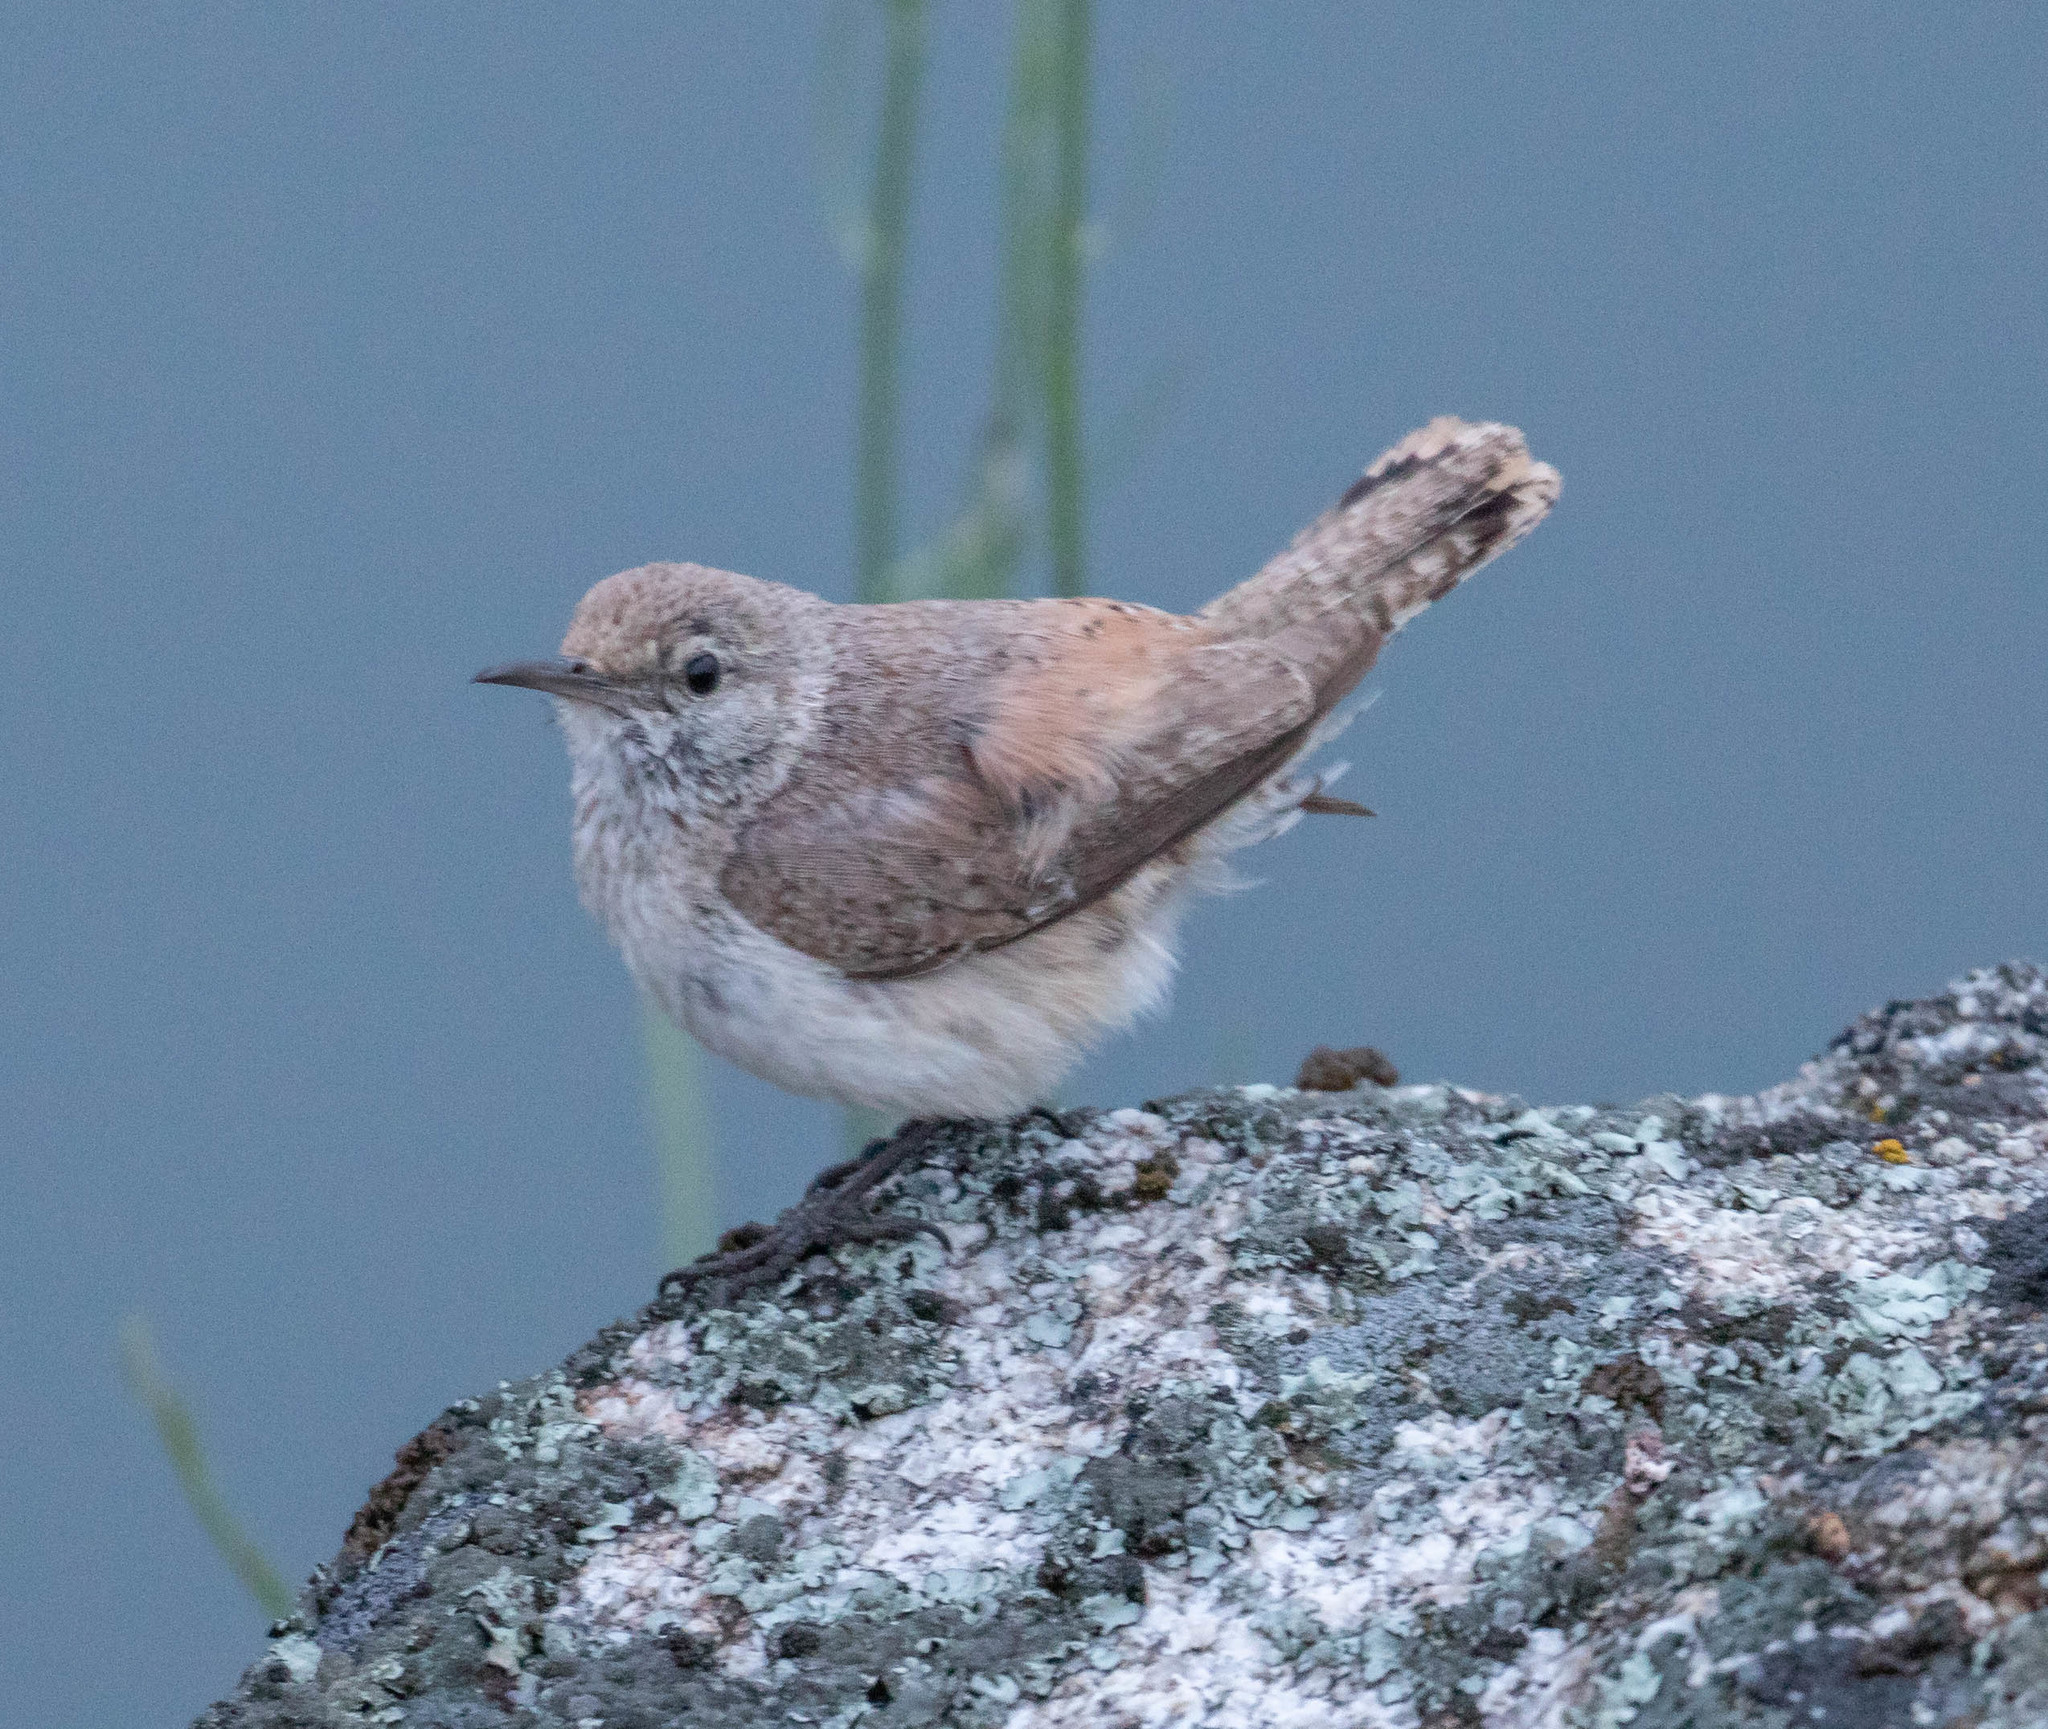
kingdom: Animalia
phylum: Chordata
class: Aves
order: Passeriformes
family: Troglodytidae
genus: Salpinctes
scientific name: Salpinctes obsoletus
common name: Rock wren
